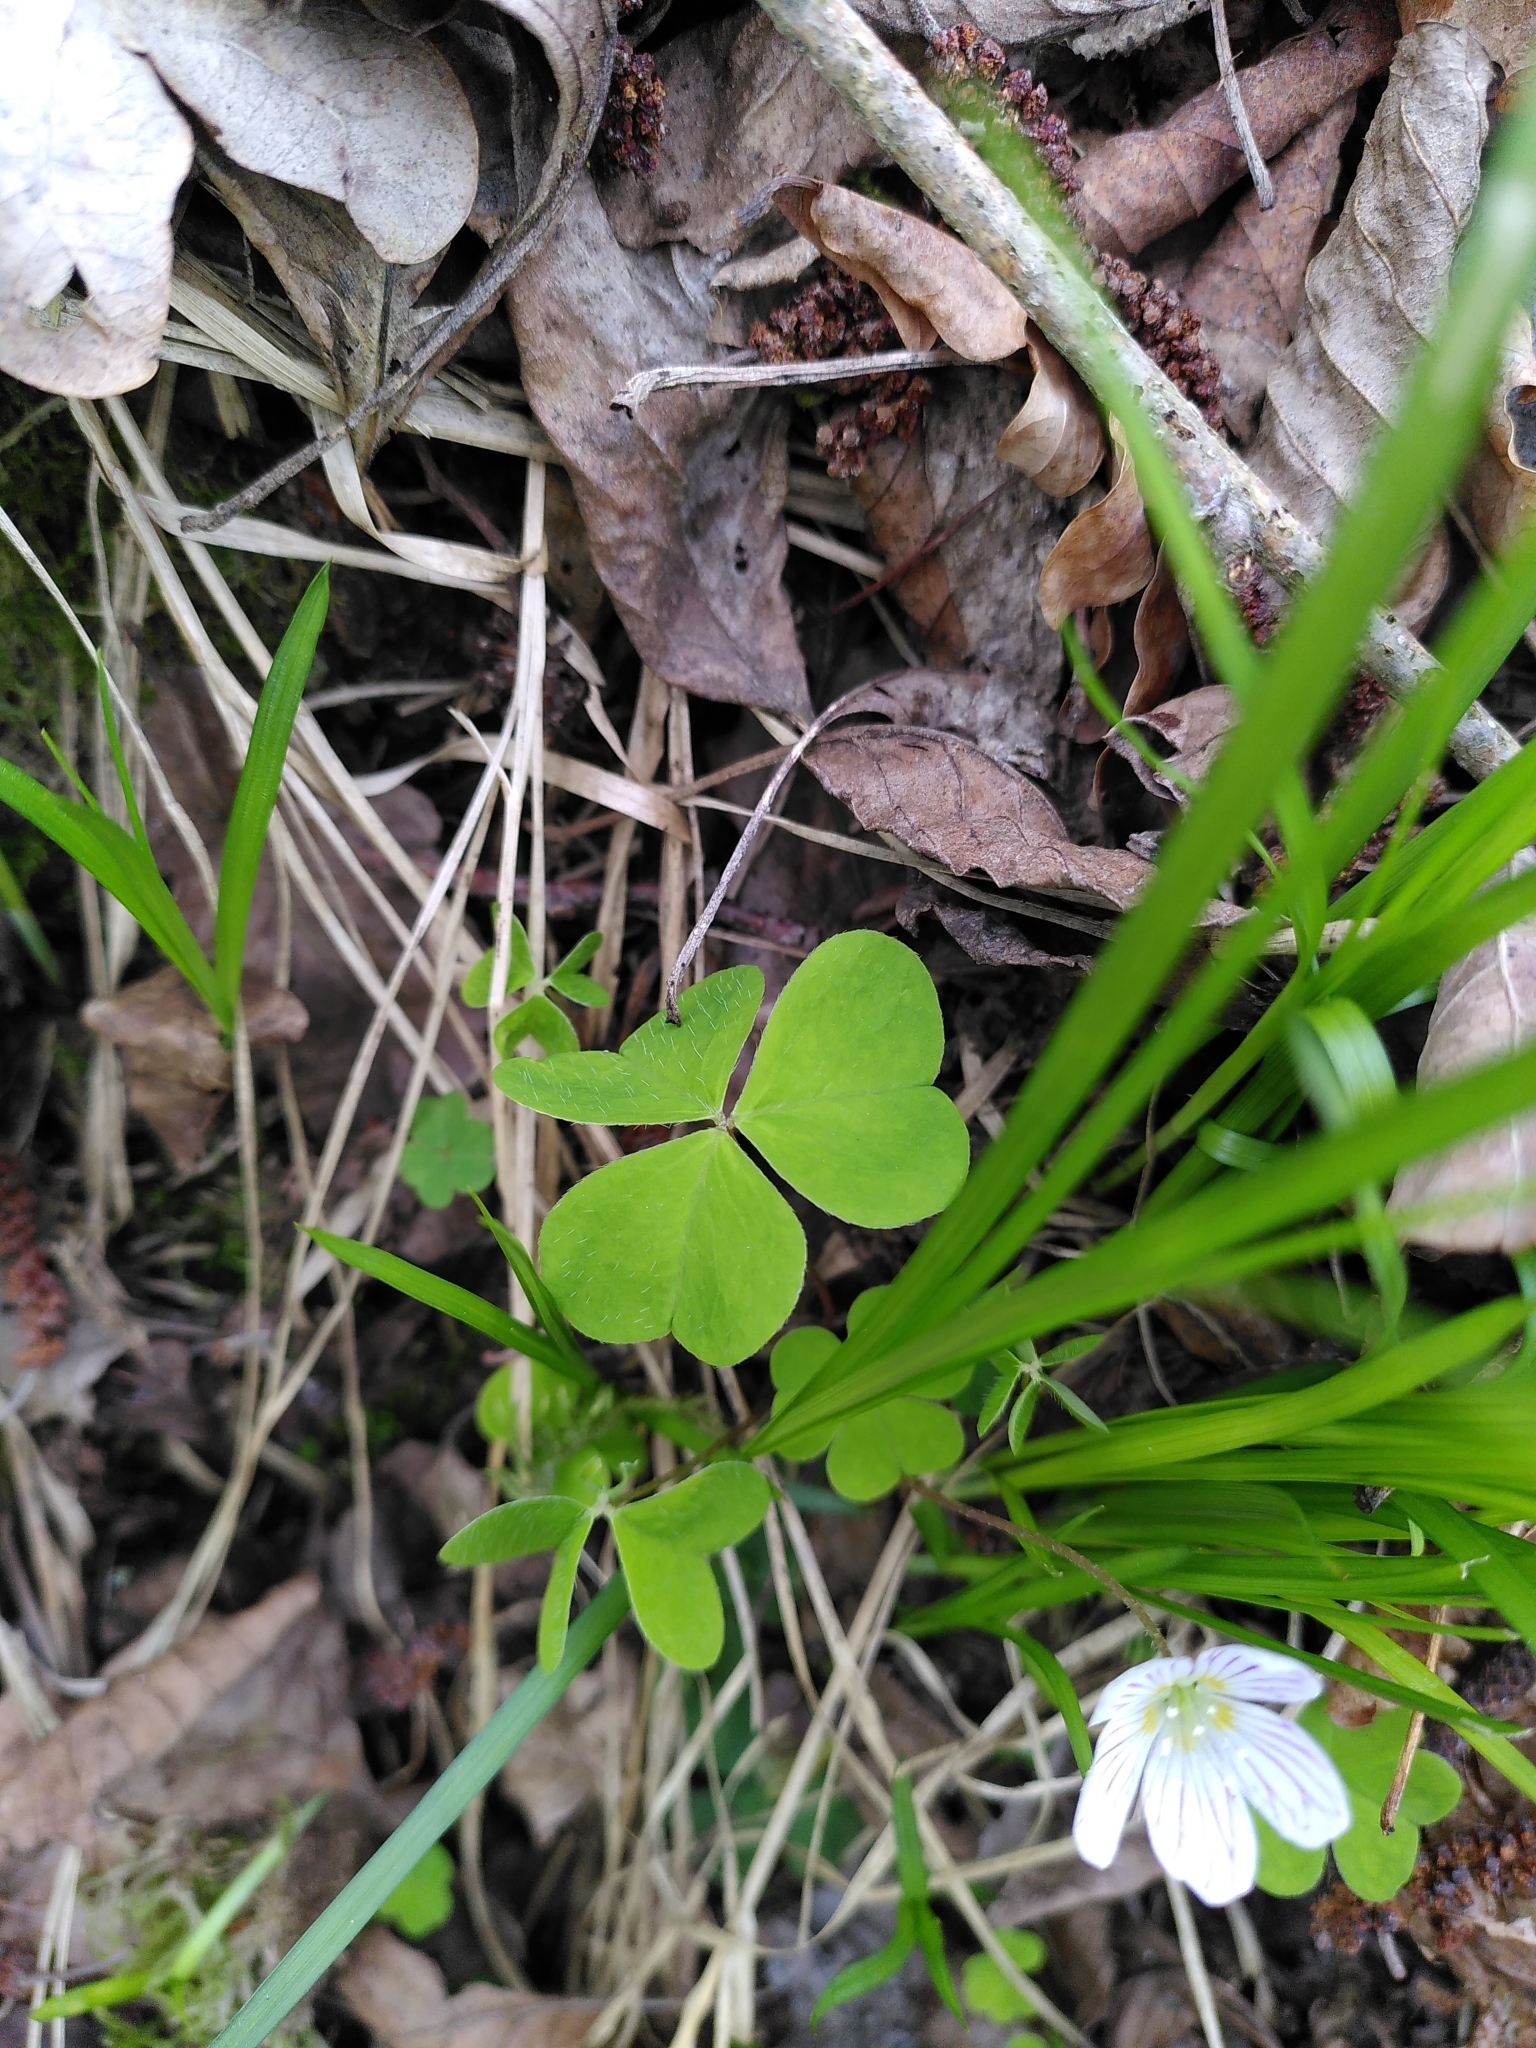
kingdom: Plantae
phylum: Tracheophyta
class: Magnoliopsida
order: Oxalidales
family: Oxalidaceae
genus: Oxalis
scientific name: Oxalis acetosella
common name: Wood-sorrel
